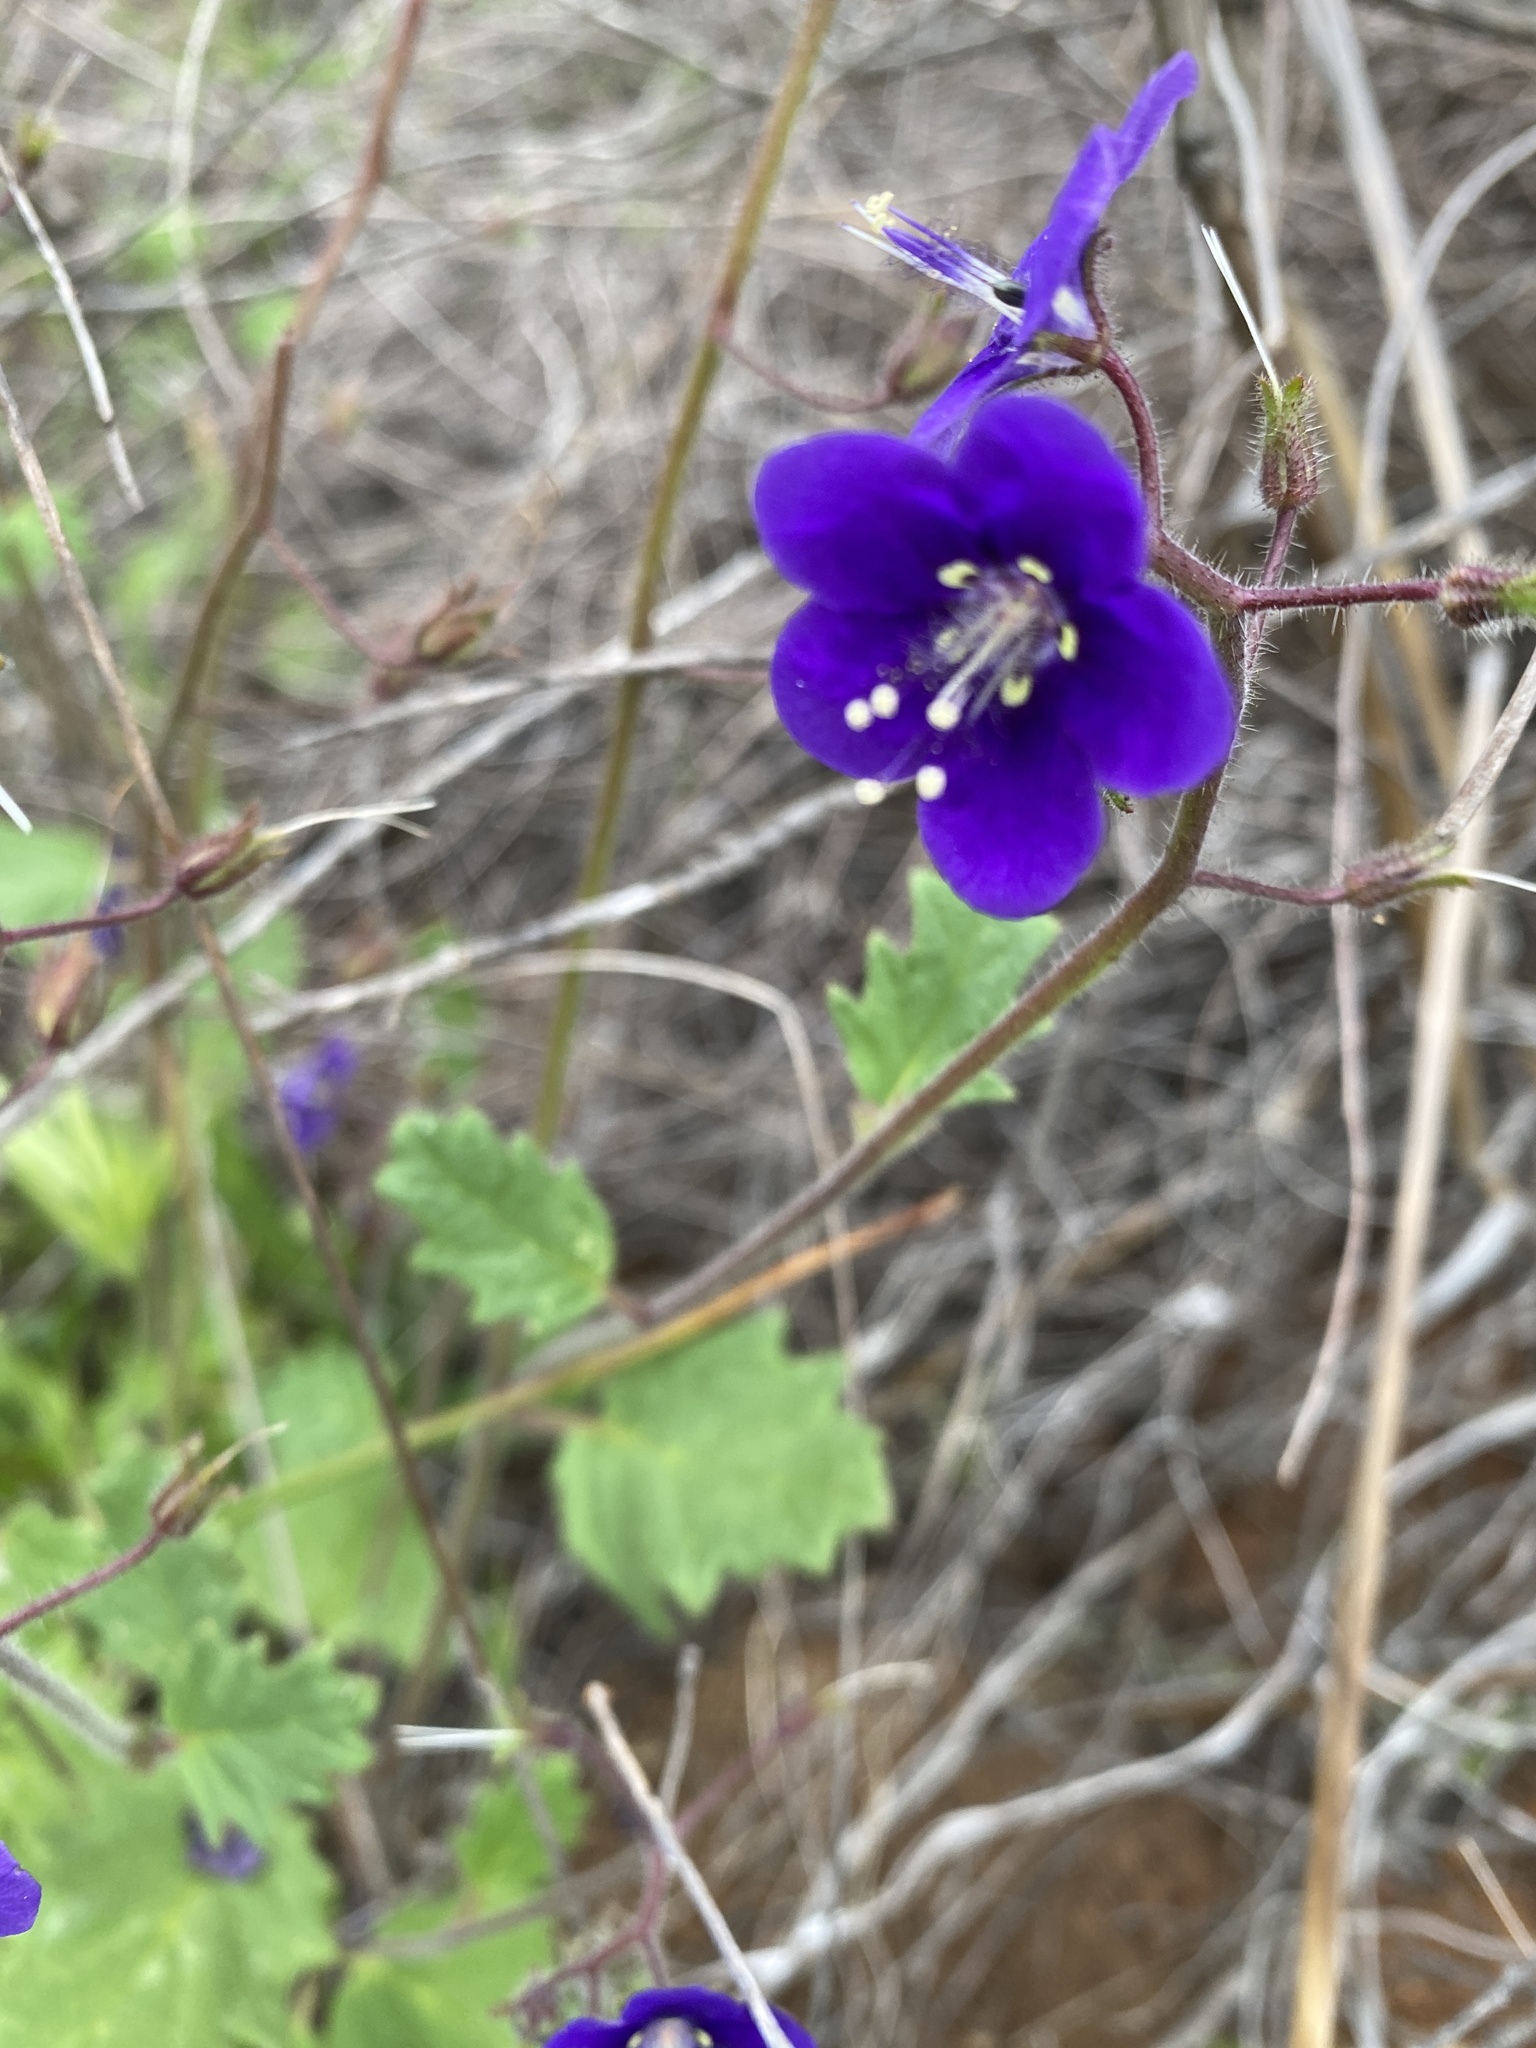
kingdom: Plantae
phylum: Tracheophyta
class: Magnoliopsida
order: Boraginales
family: Hydrophyllaceae
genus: Phacelia
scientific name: Phacelia parryi
